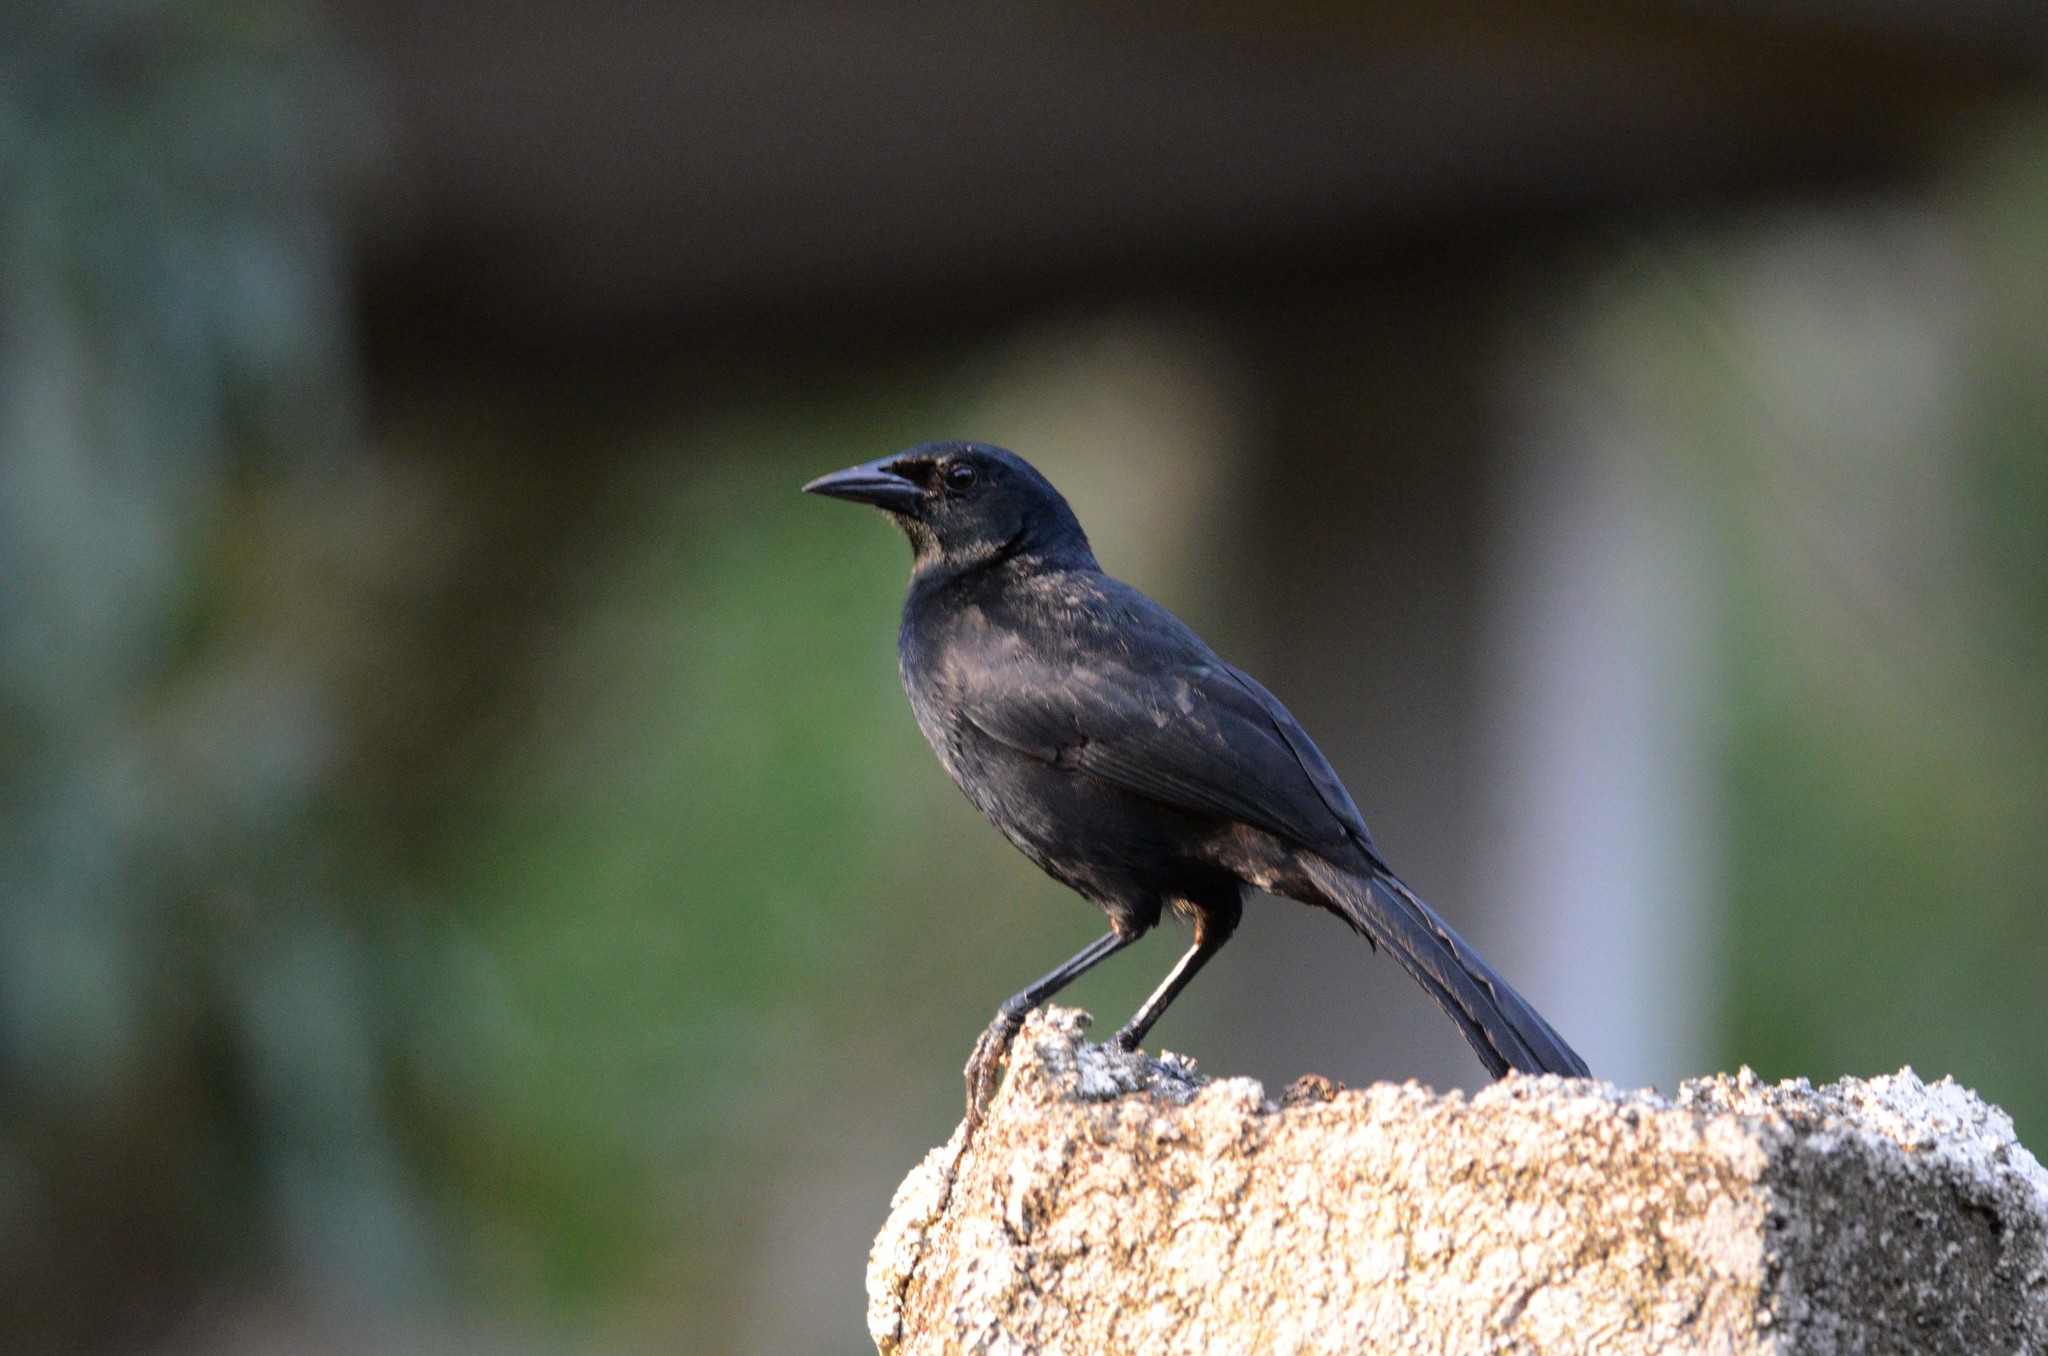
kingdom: Animalia
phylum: Chordata
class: Aves
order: Passeriformes
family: Icteridae
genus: Dives
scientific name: Dives dives
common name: Melodious blackbird
